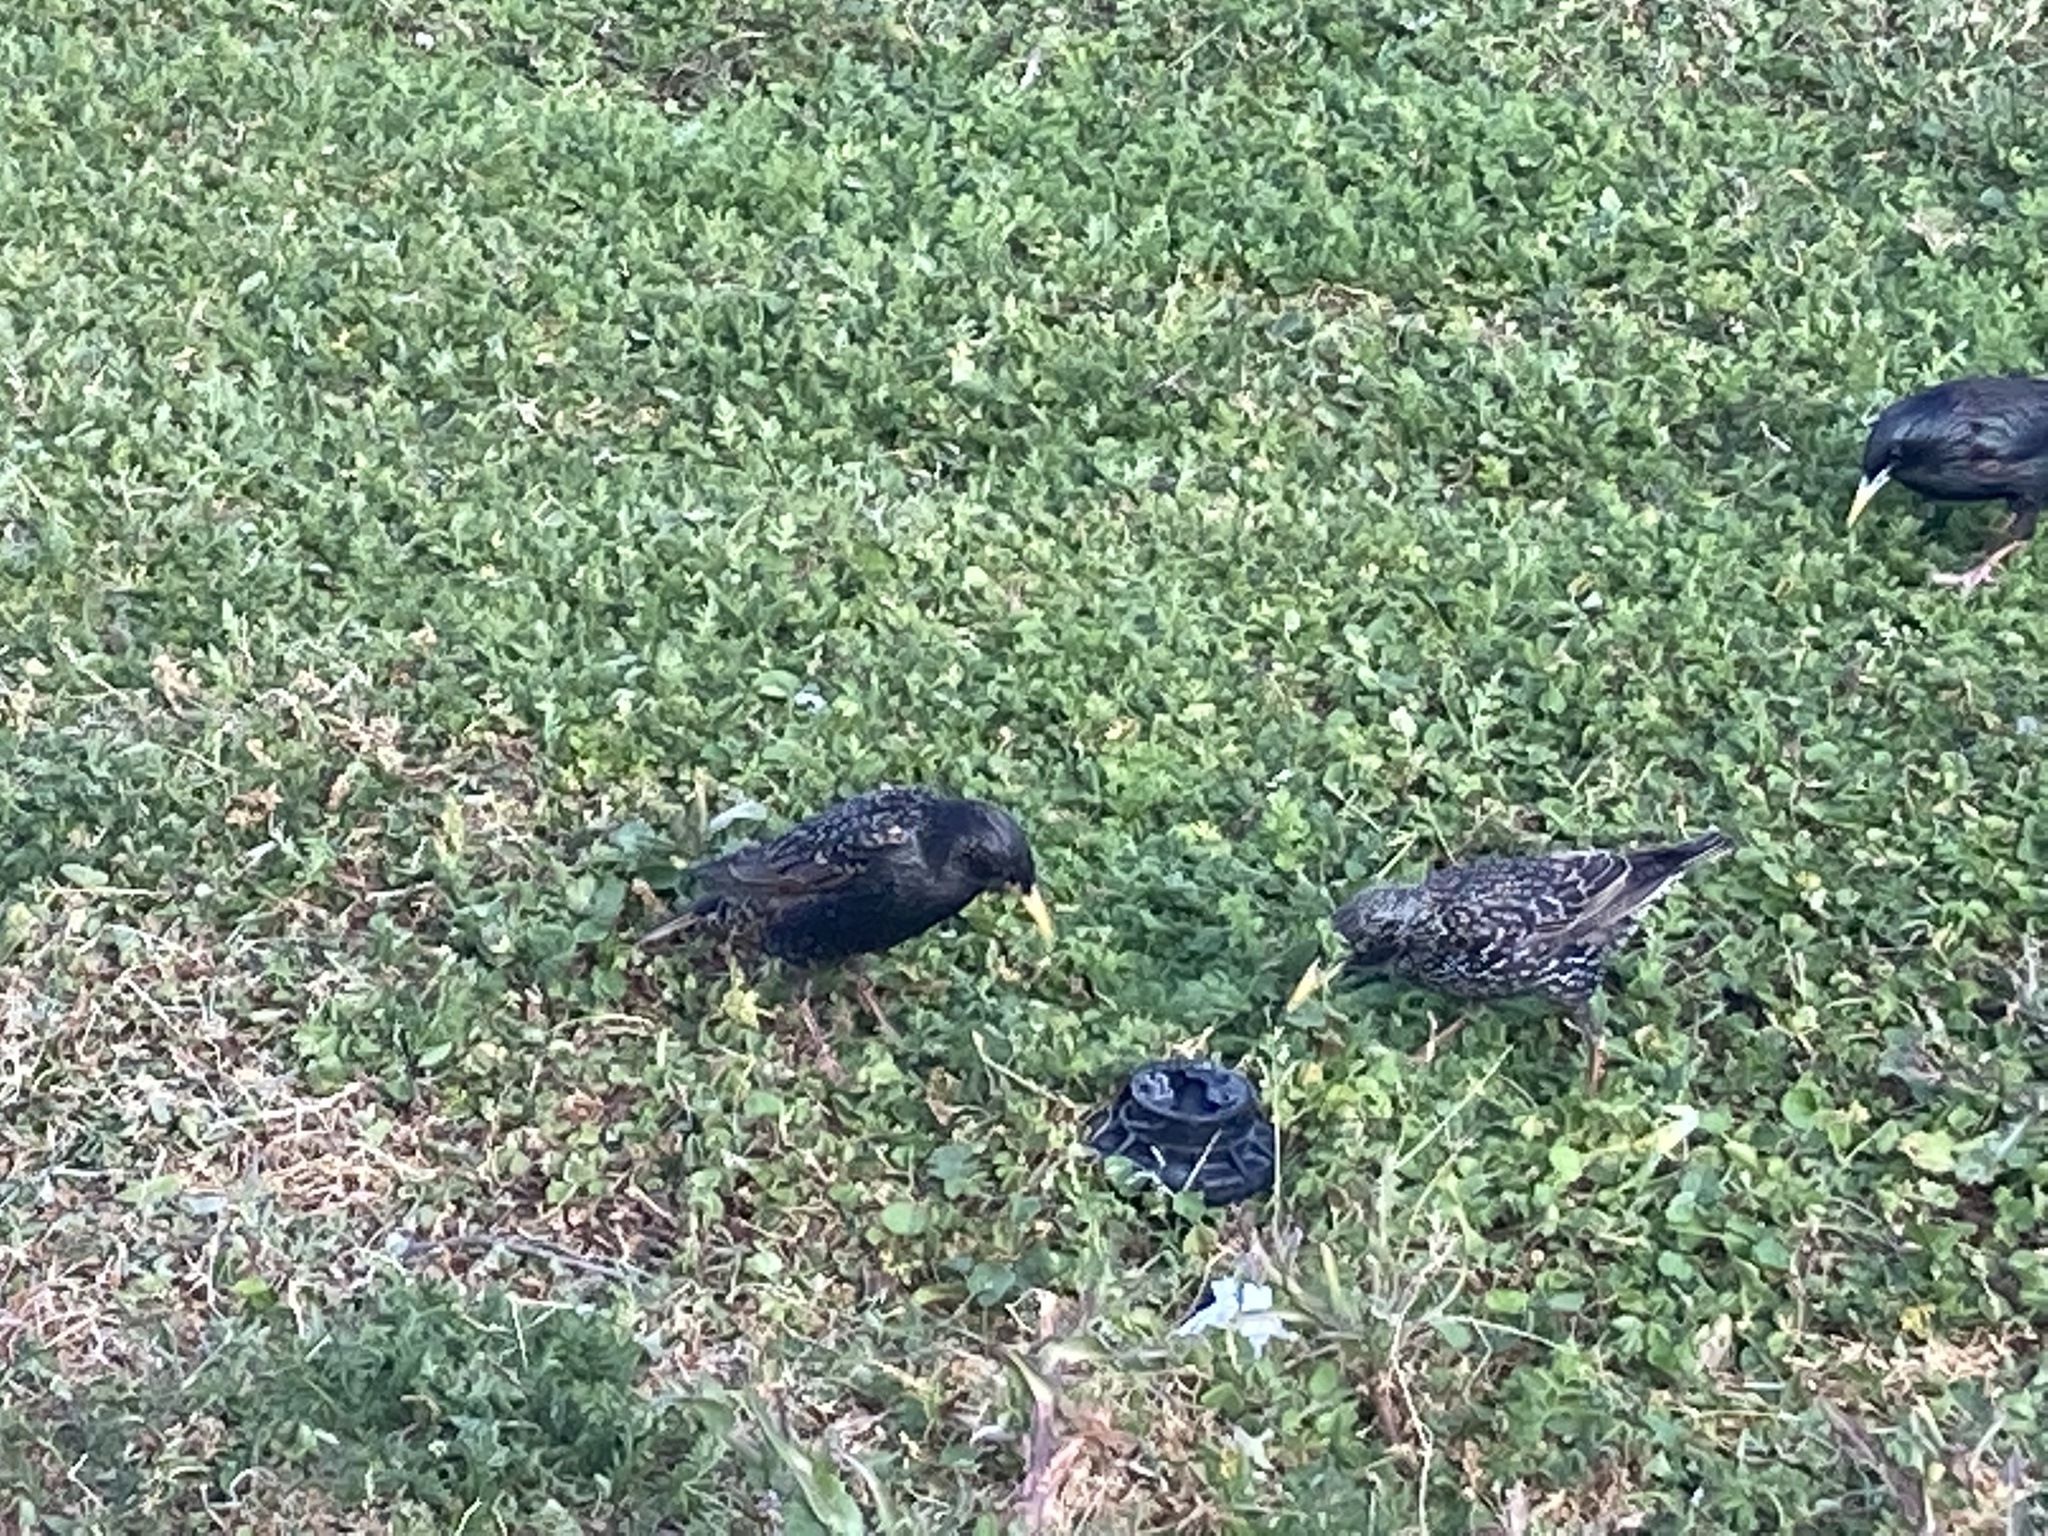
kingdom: Animalia
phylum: Chordata
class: Aves
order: Passeriformes
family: Sturnidae
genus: Sturnus
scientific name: Sturnus vulgaris
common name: Common starling
